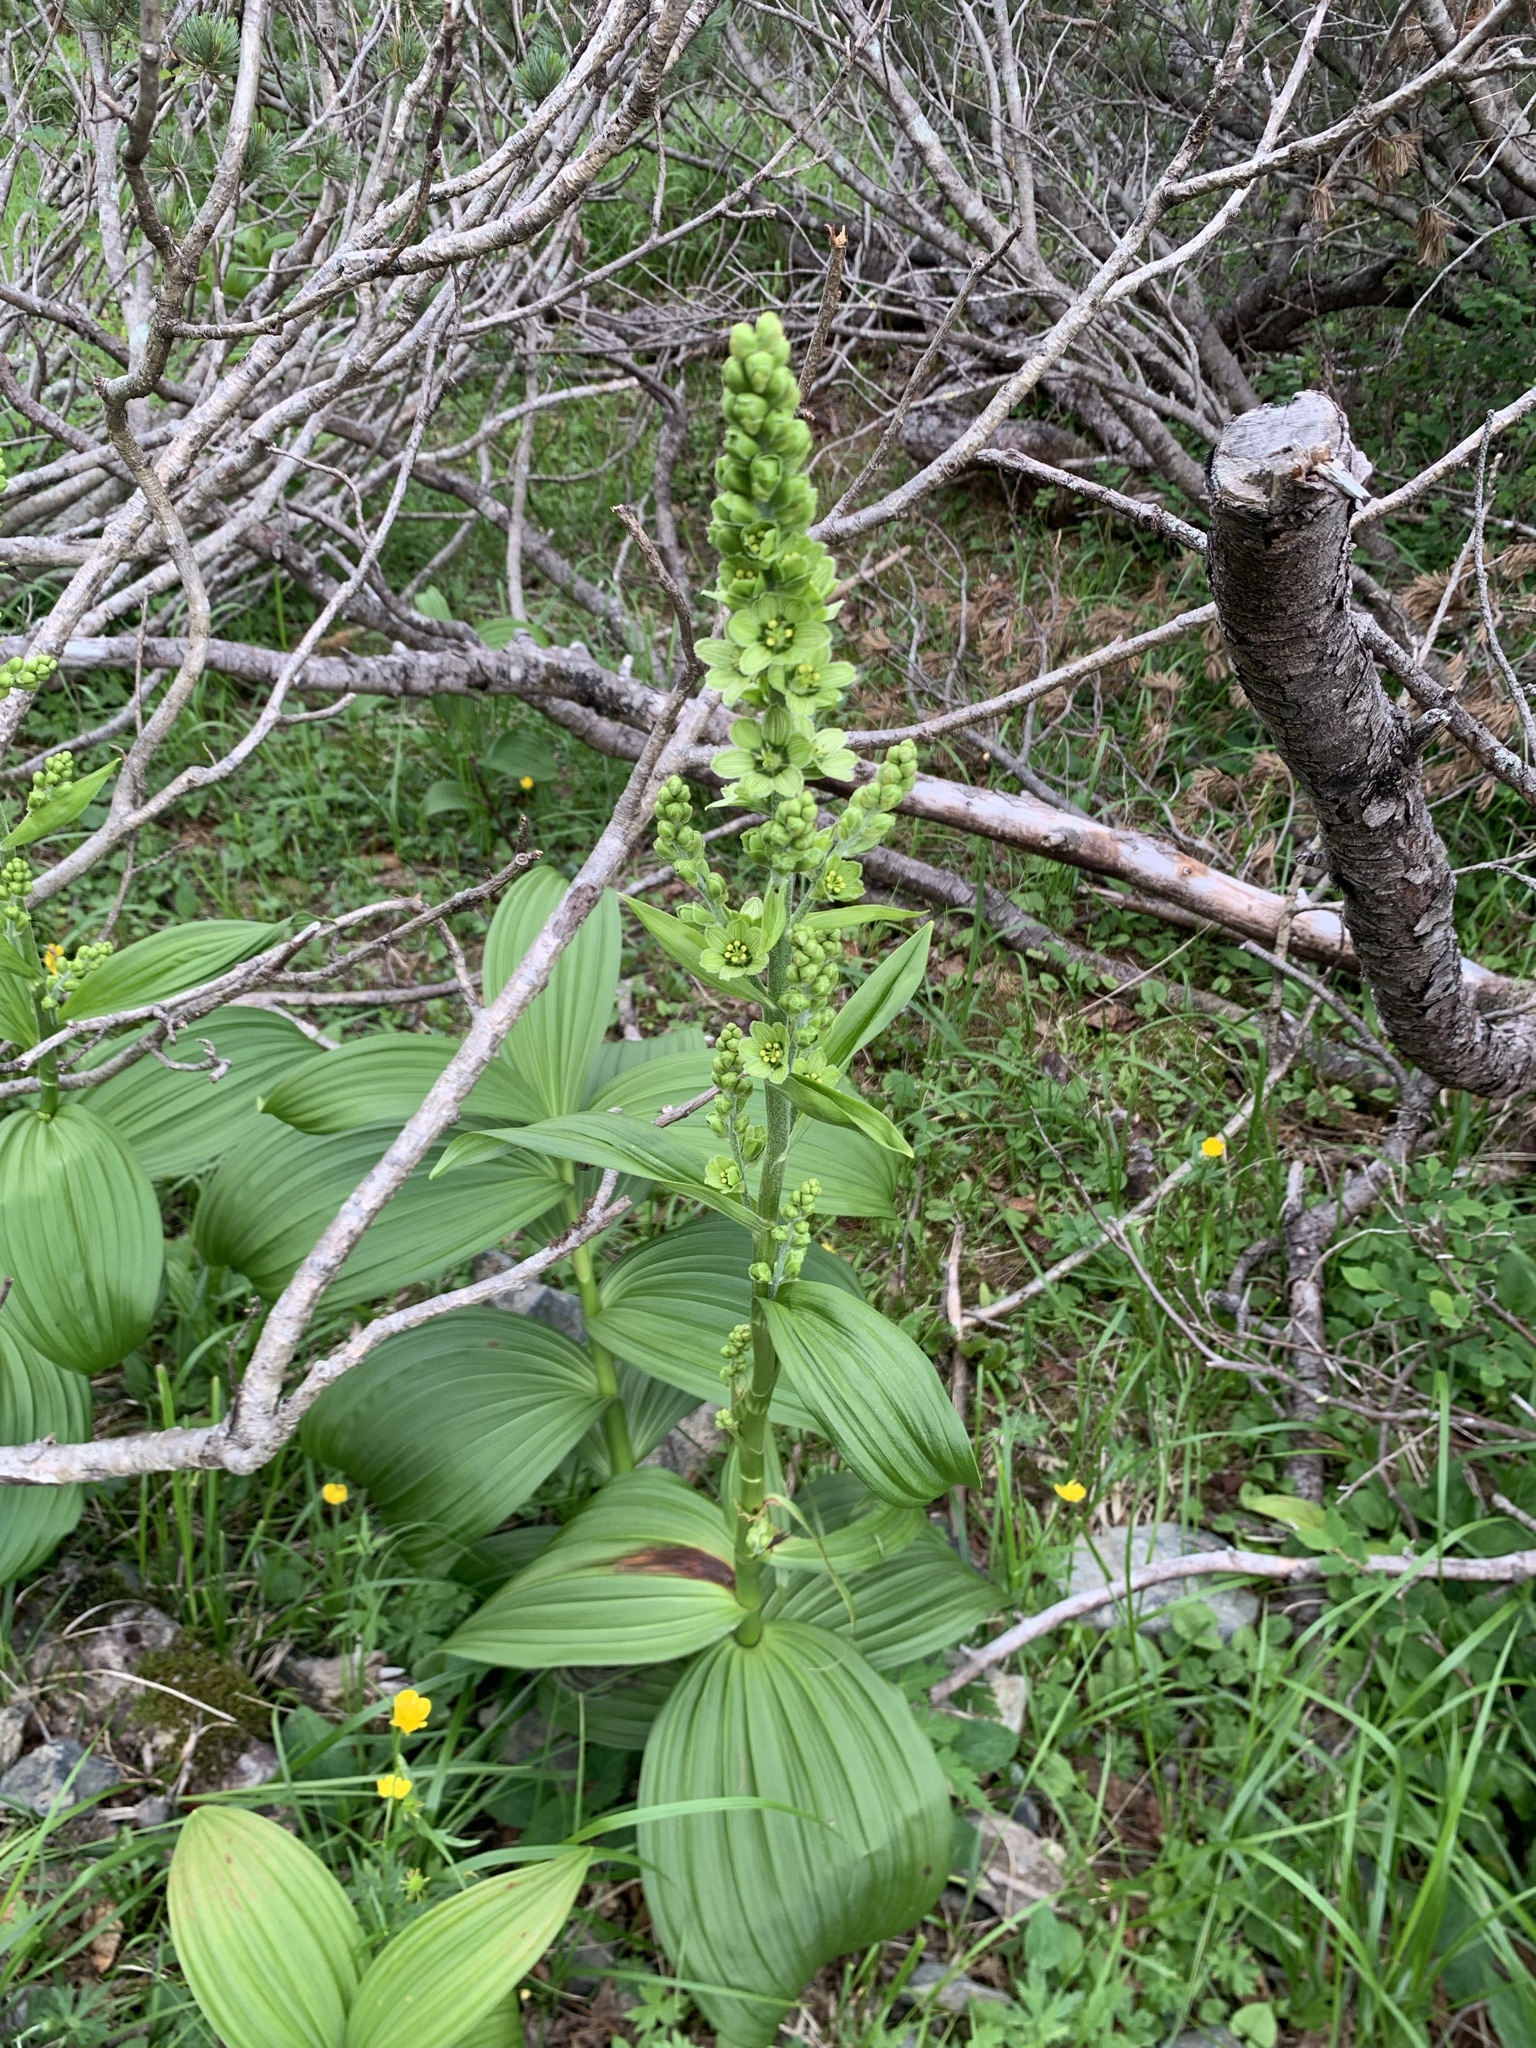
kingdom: Plantae
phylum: Tracheophyta
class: Liliopsida
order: Liliales
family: Melanthiaceae
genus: Veratrum
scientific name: Veratrum oxysepalum
